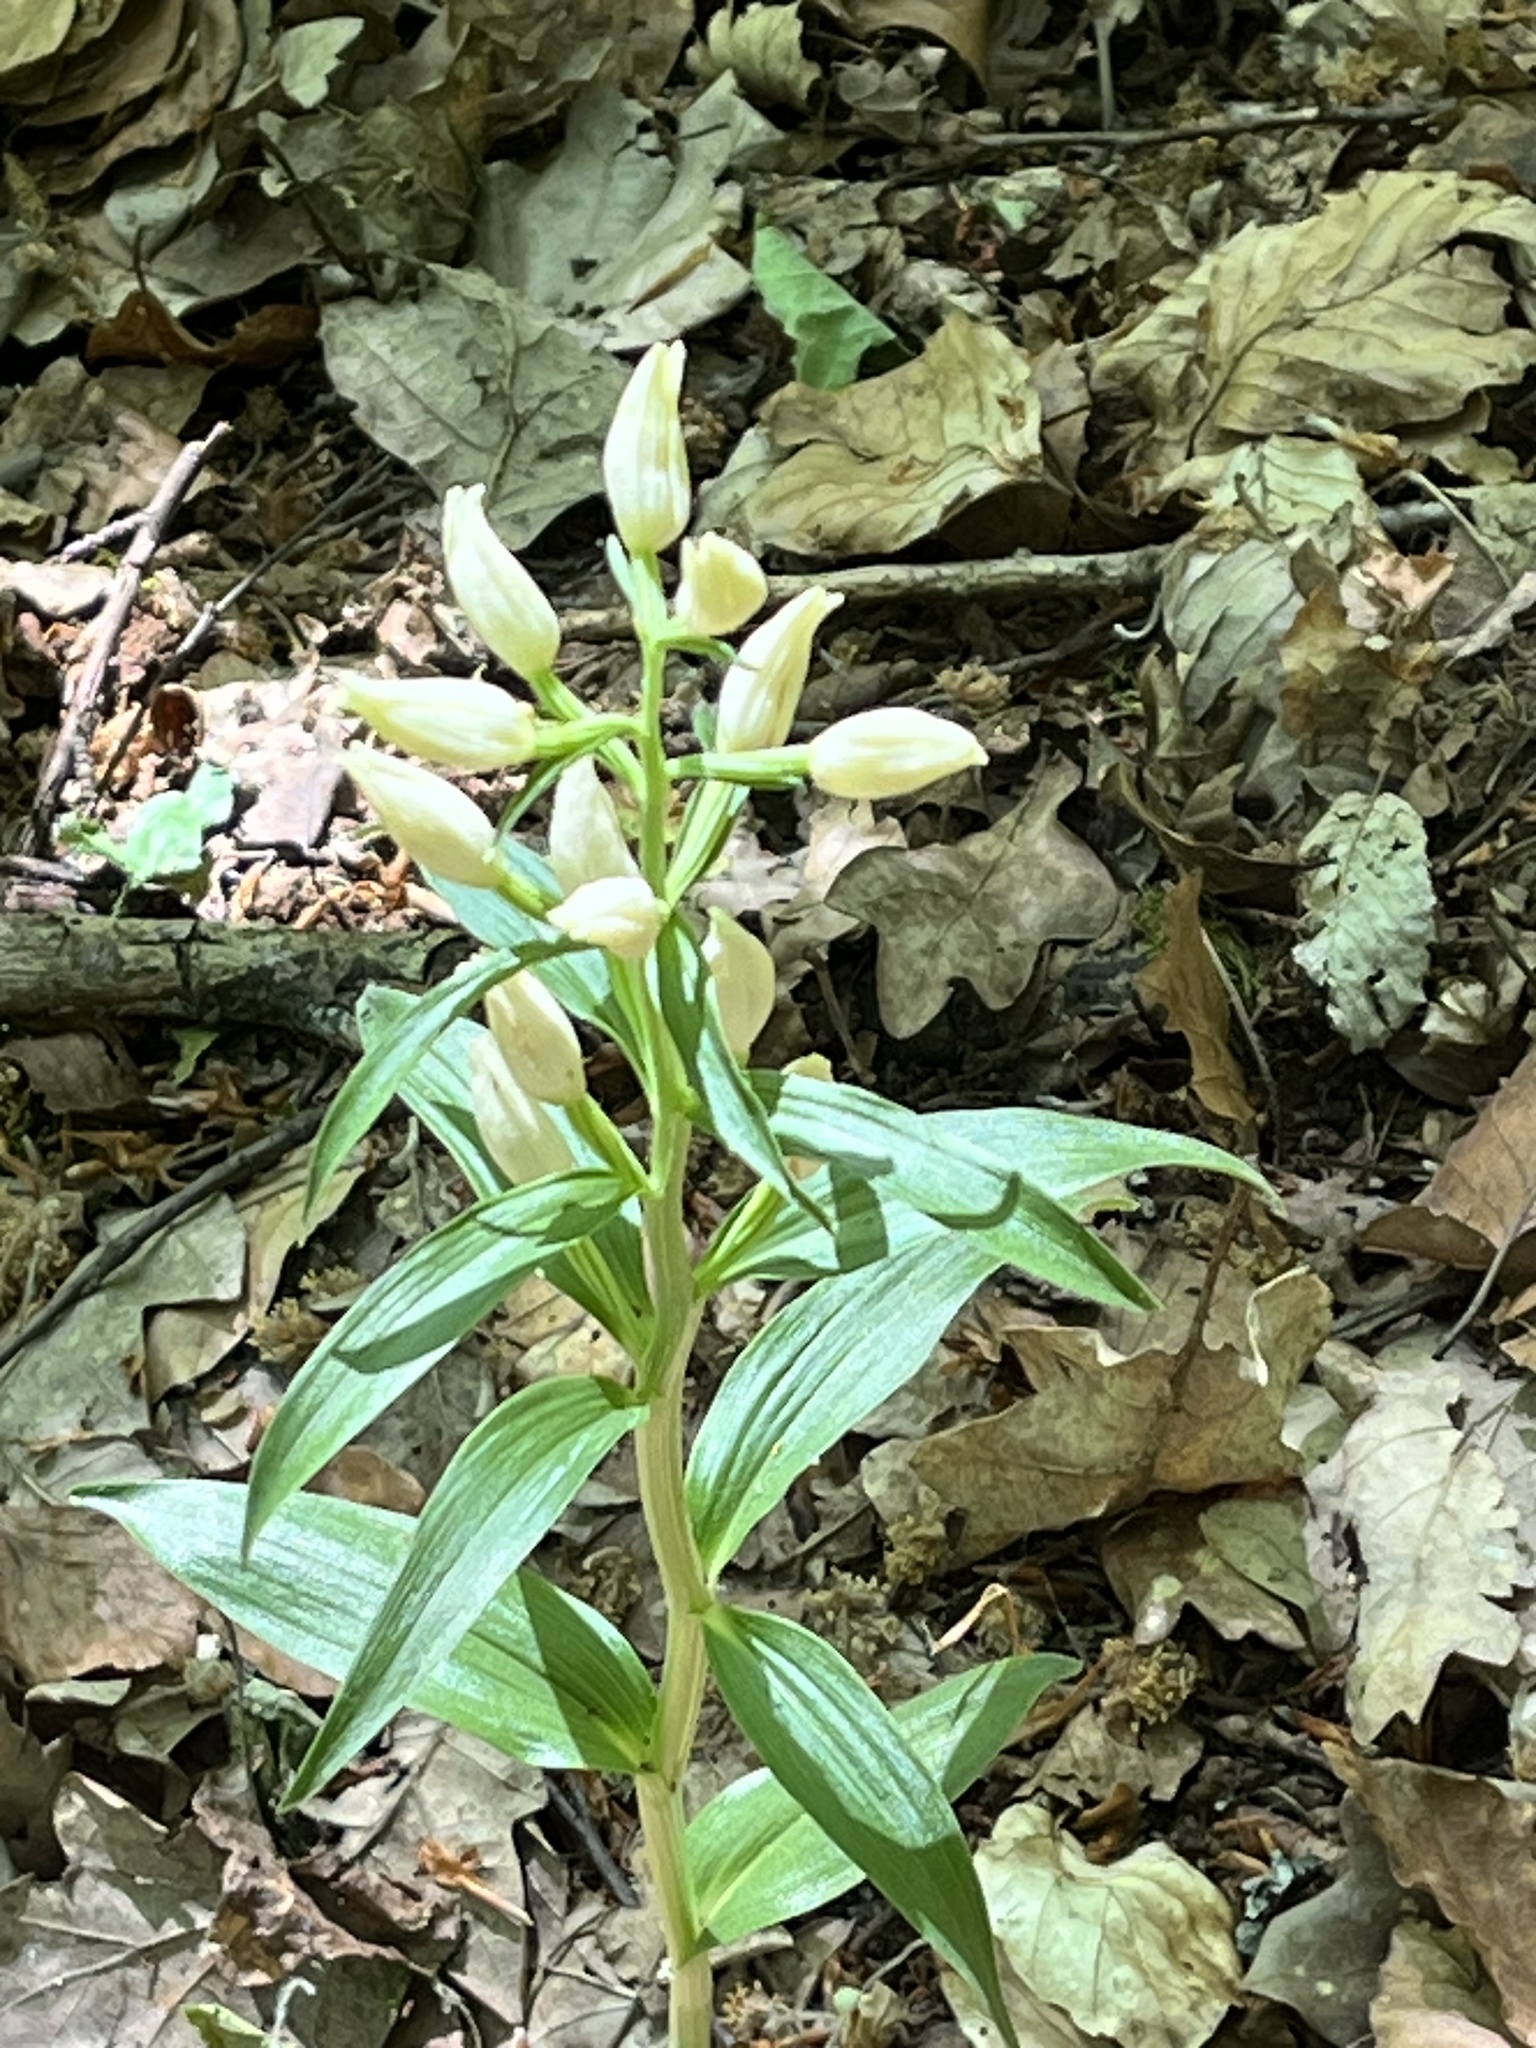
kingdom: Plantae
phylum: Tracheophyta
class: Liliopsida
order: Asparagales
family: Orchidaceae
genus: Cephalanthera
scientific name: Cephalanthera damasonium
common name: White helleborine
